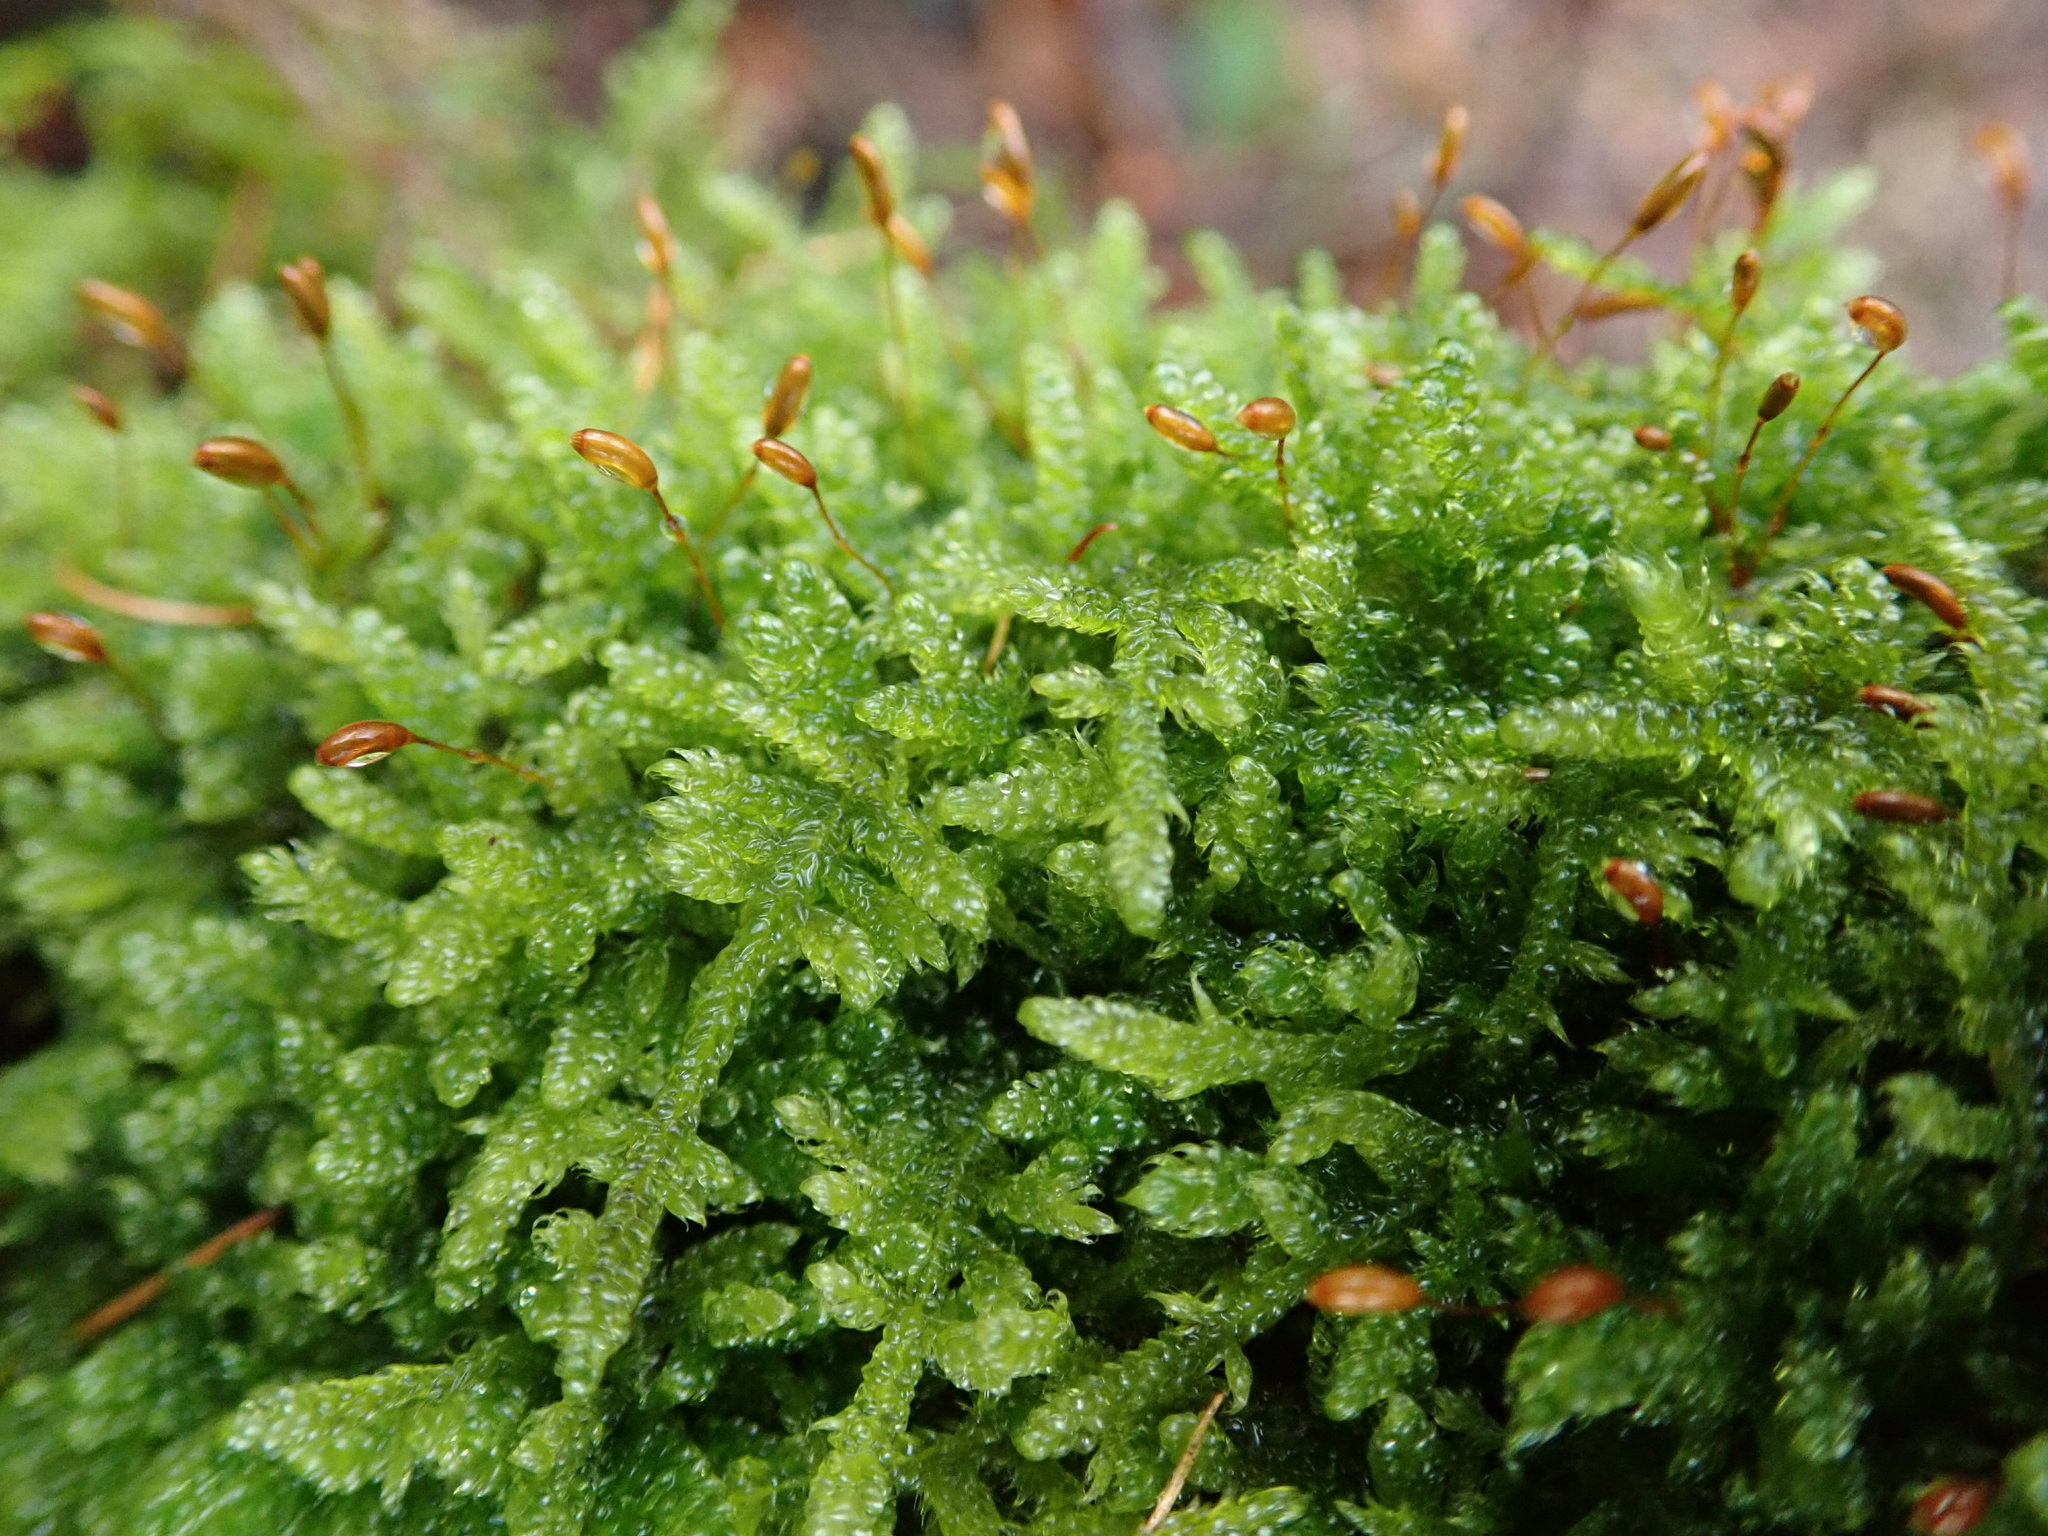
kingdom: Plantae
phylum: Bryophyta
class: Bryopsida
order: Hypnales
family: Hypnaceae
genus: Hypnum
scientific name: Hypnum cupressiforme
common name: Cypress-leaved plait-moss
